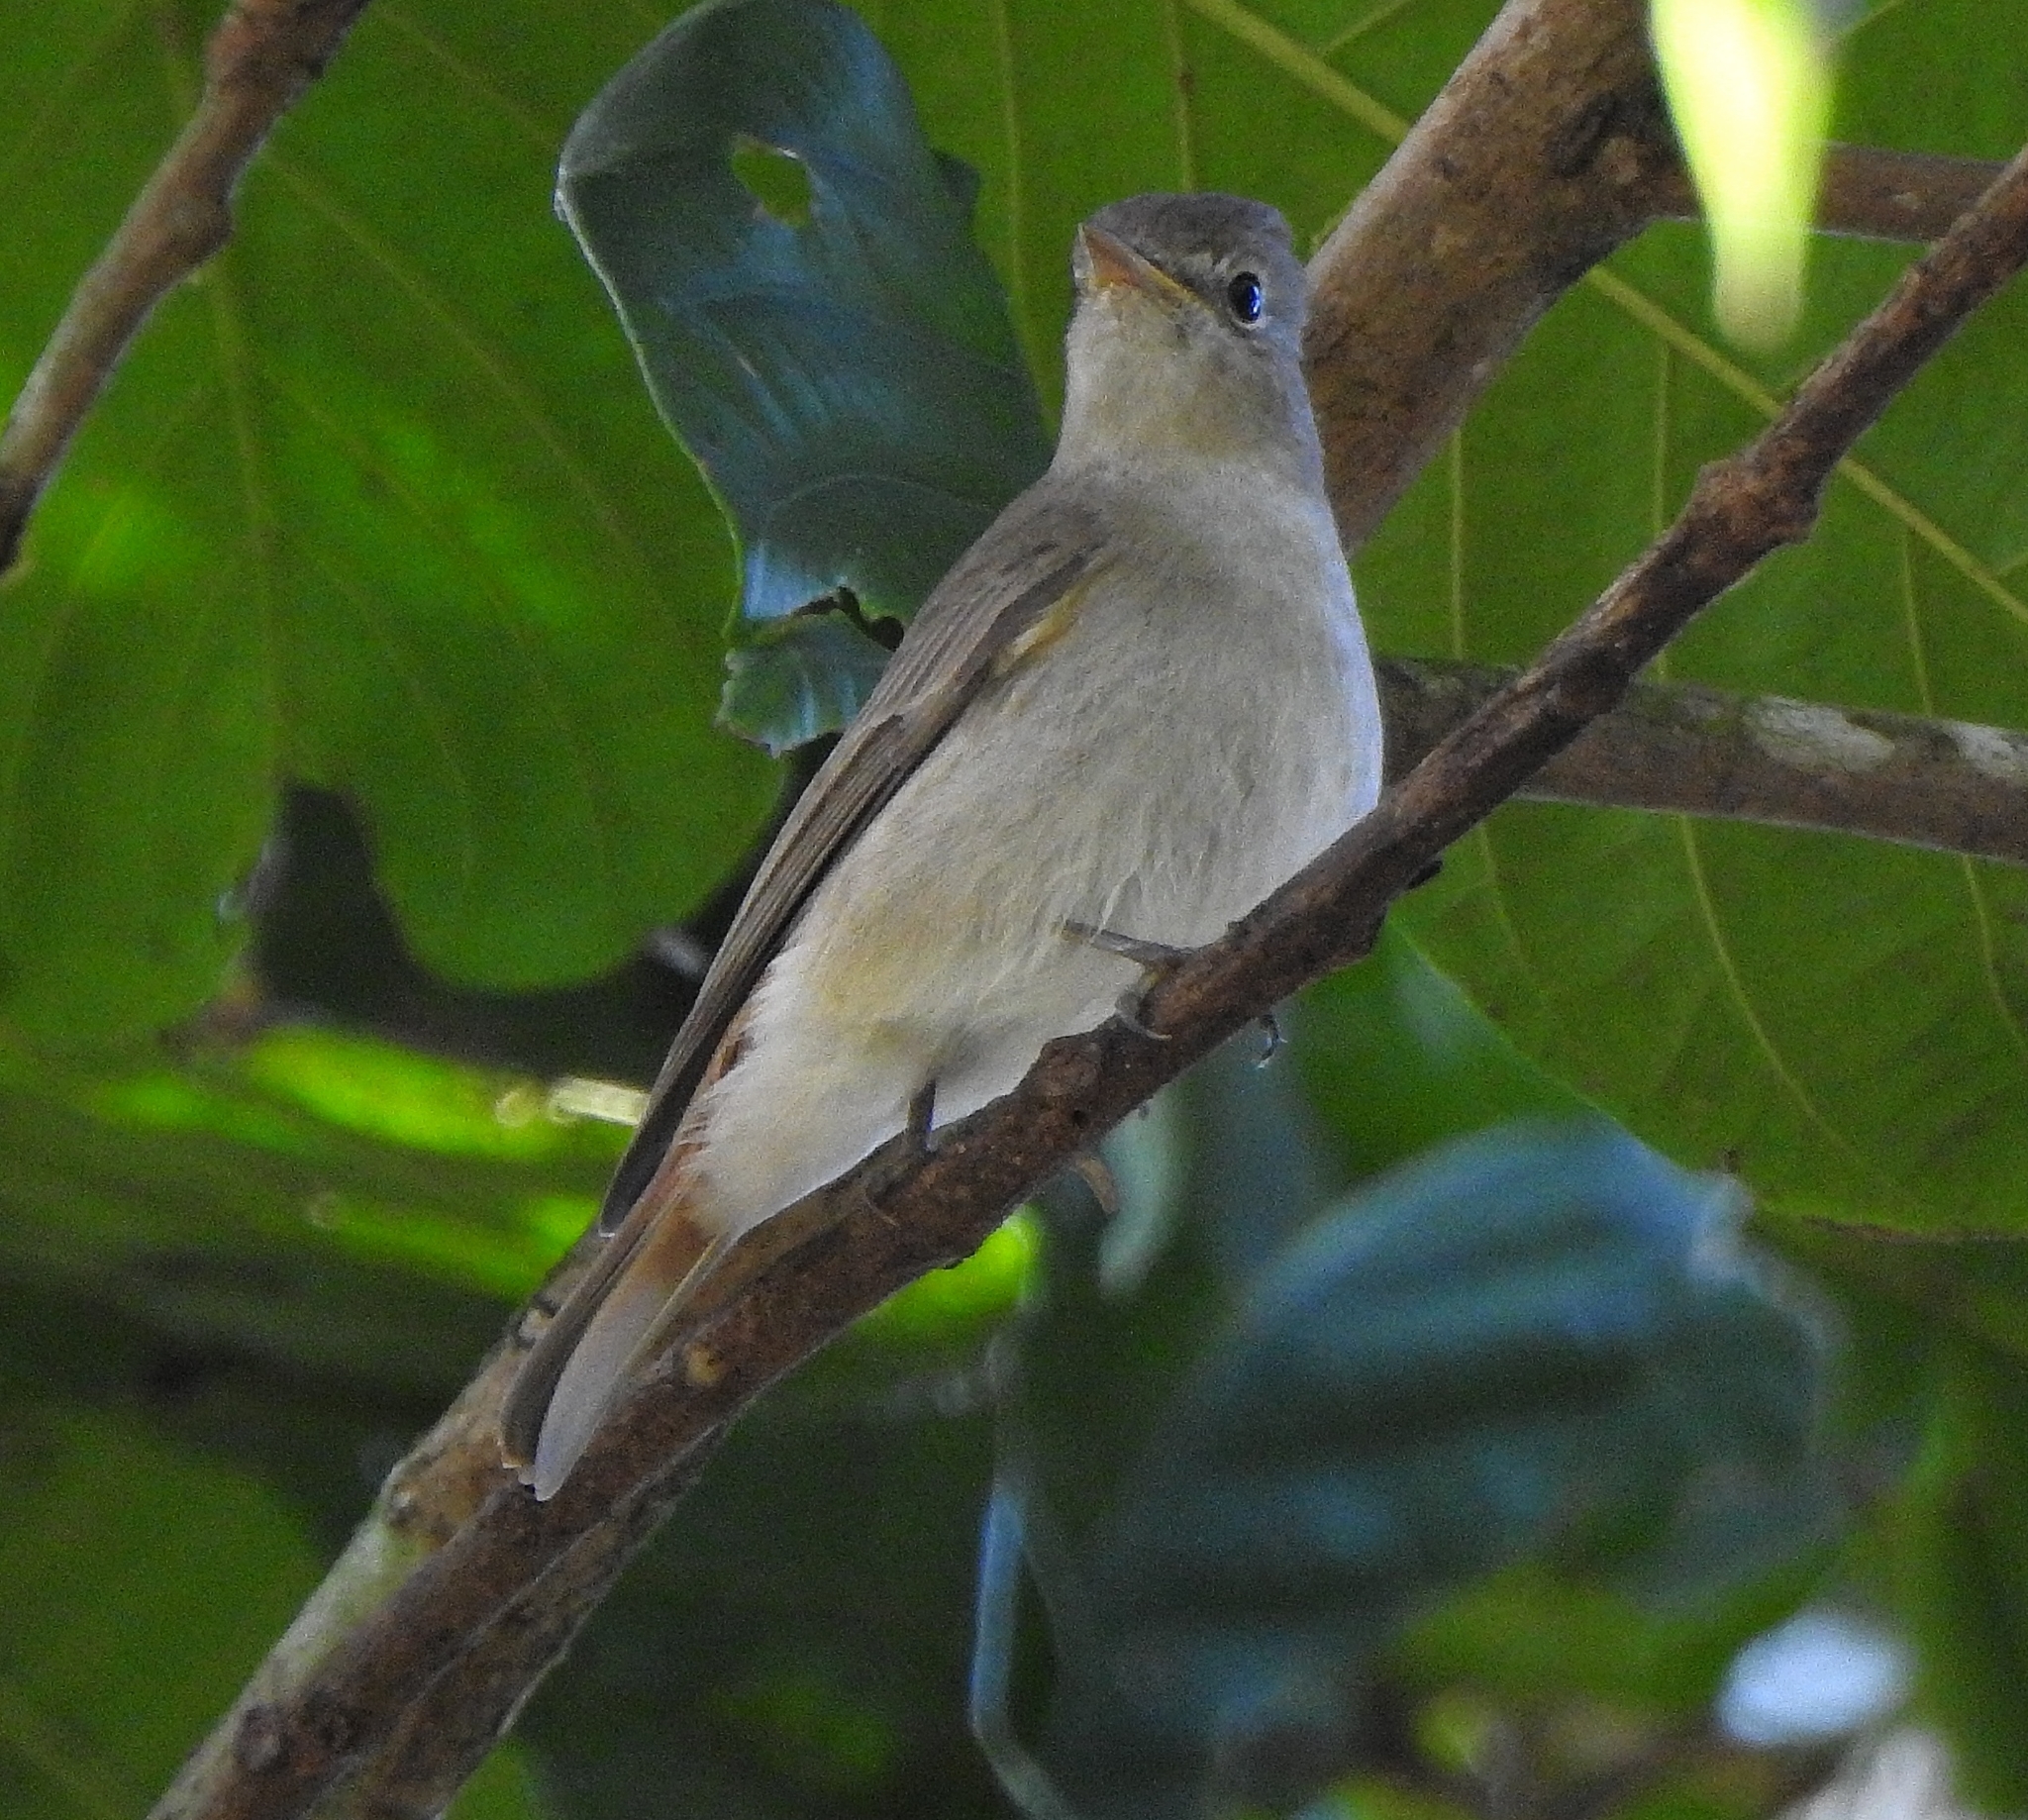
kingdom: Animalia
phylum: Chordata
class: Aves
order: Passeriformes
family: Muscicapidae
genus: Muscicapa
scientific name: Muscicapa ruficauda
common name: Rusty-tailed flycatcher
